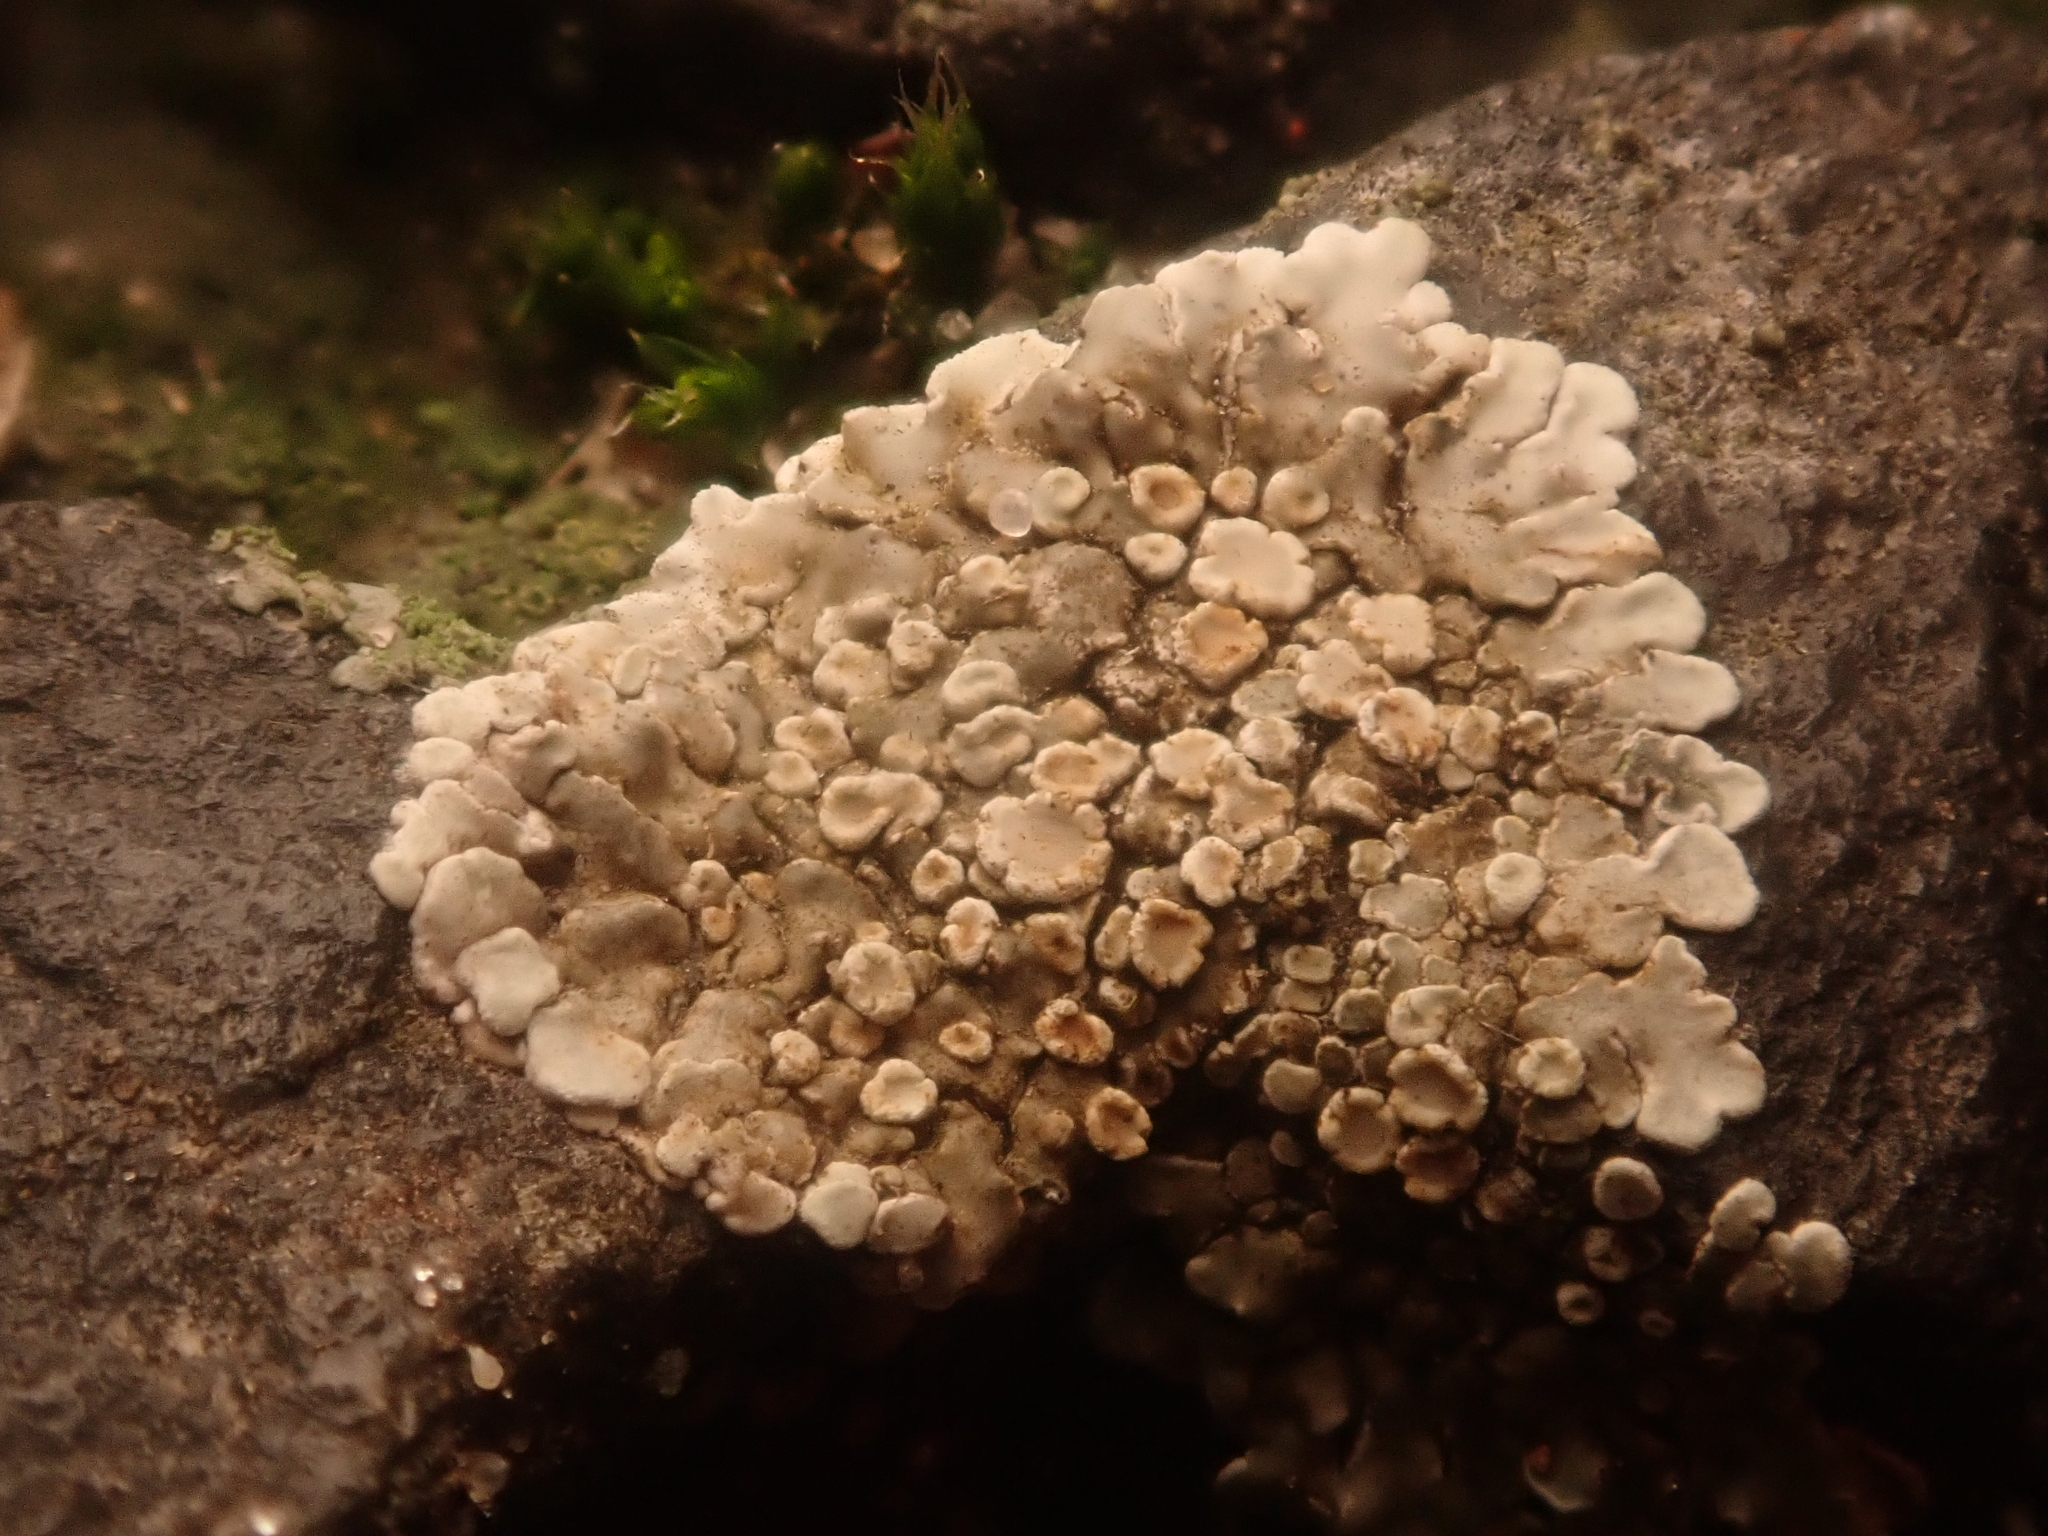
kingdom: Fungi
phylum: Ascomycota
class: Lecanoromycetes
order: Lecanorales
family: Lecanoraceae
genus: Protoparmeliopsis
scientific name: Protoparmeliopsis muralis
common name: Stonewall rim lichen
